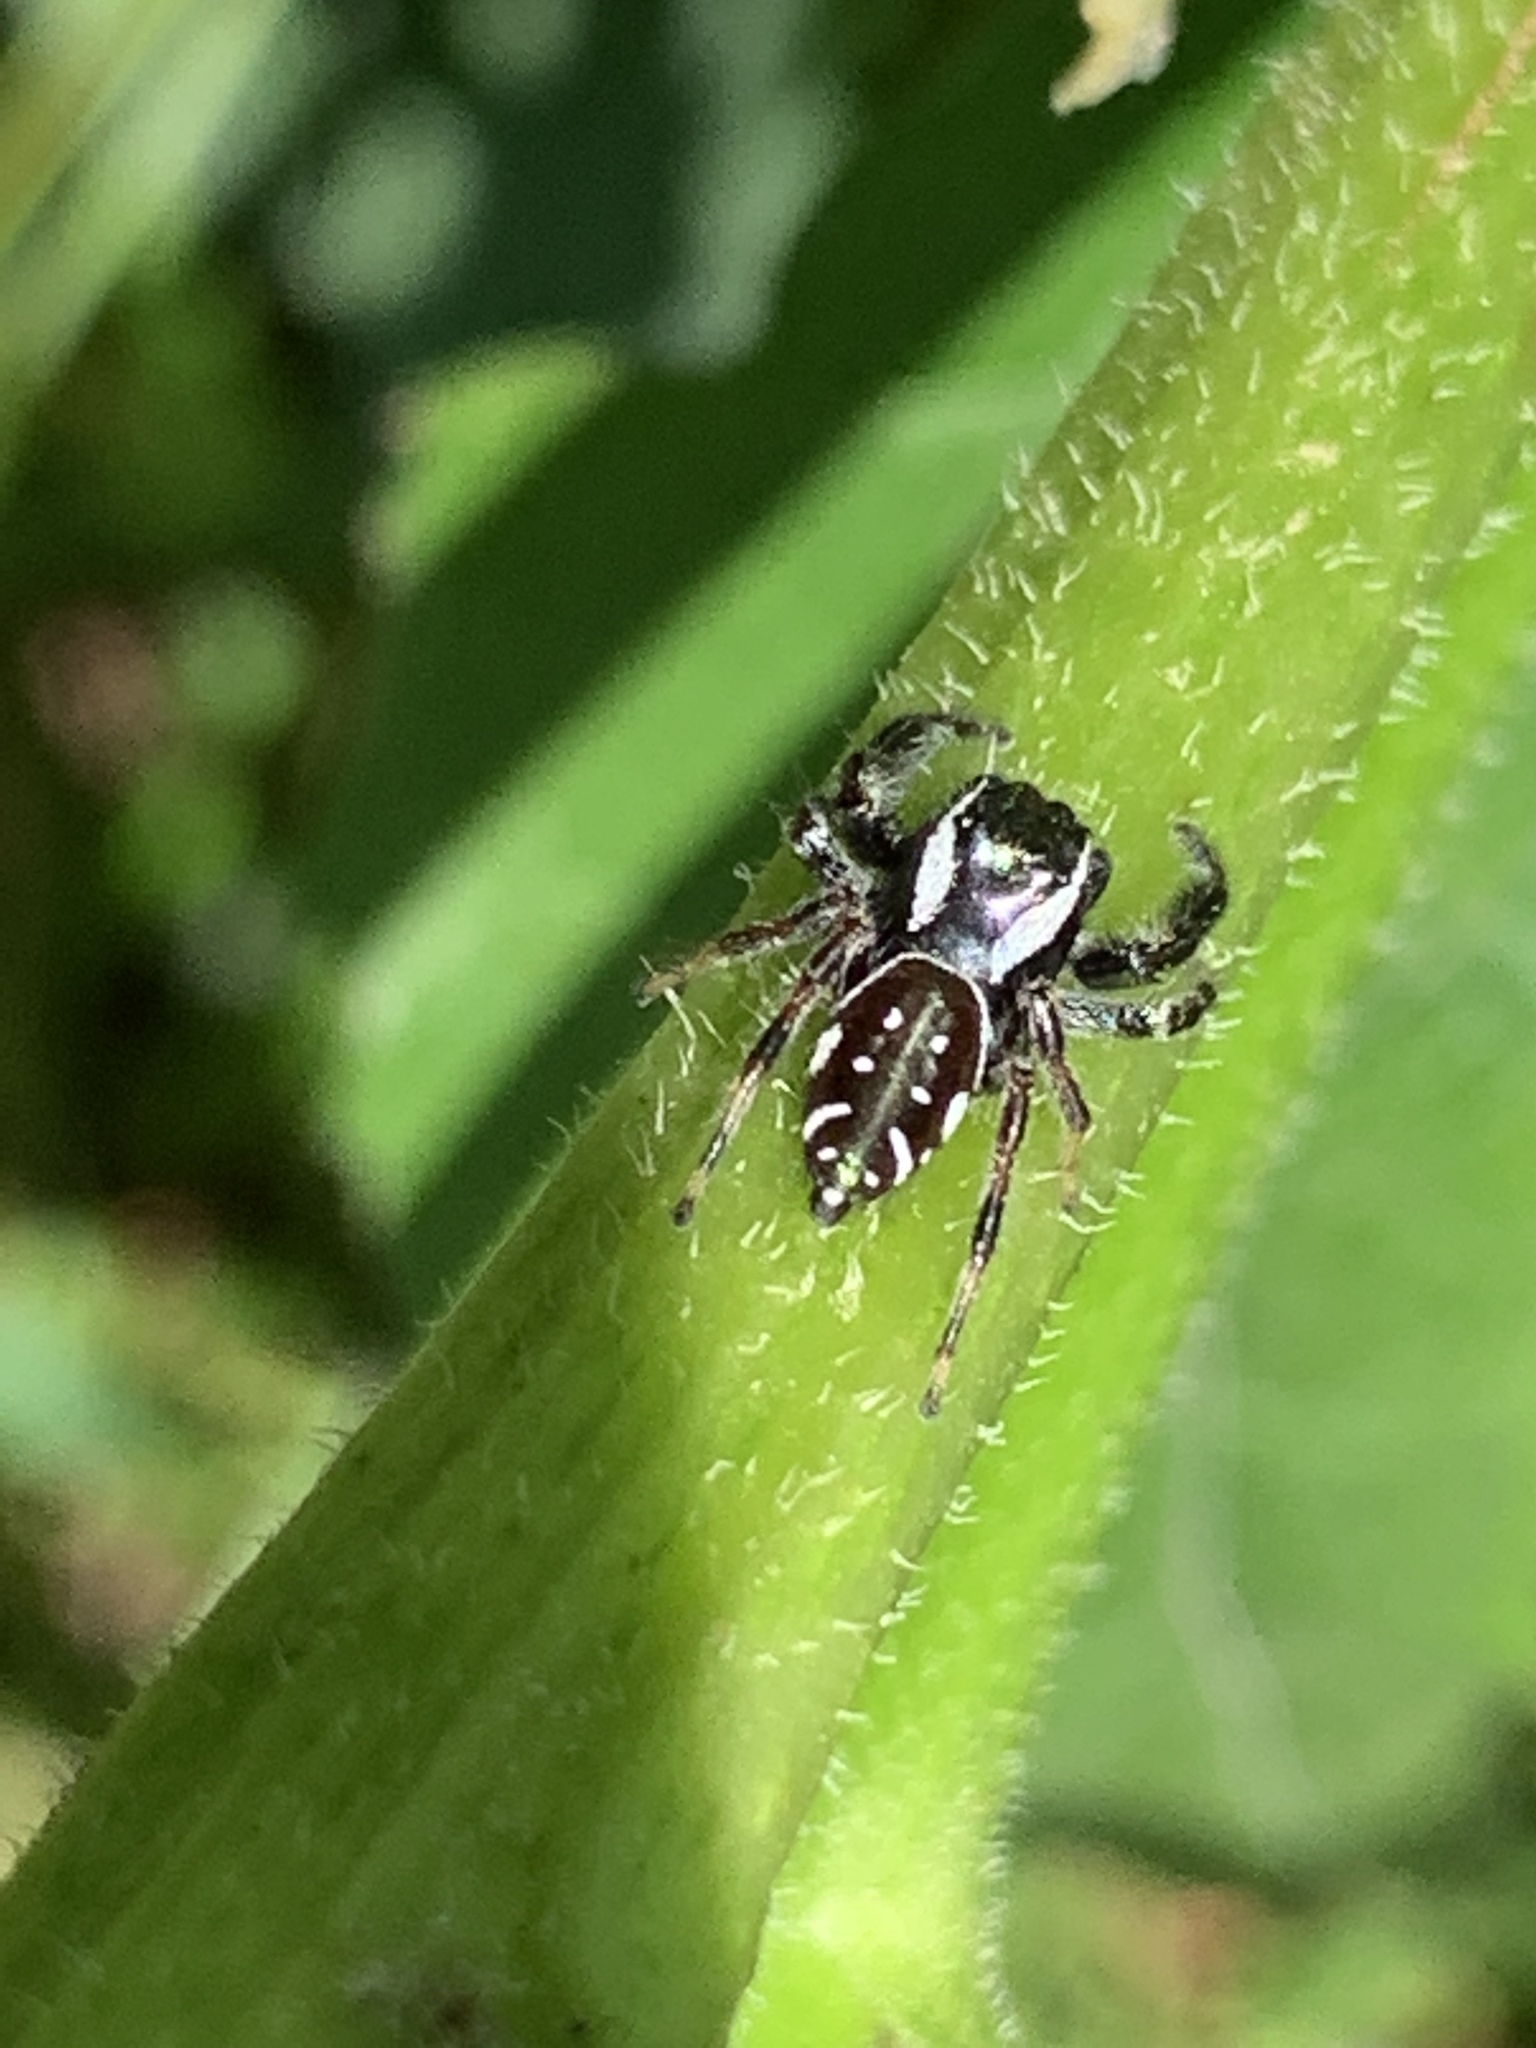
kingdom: Animalia
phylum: Arthropoda
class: Arachnida
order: Araneae
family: Salticidae
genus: Paraphidippus
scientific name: Paraphidippus aurantius
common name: Jumping spiders
